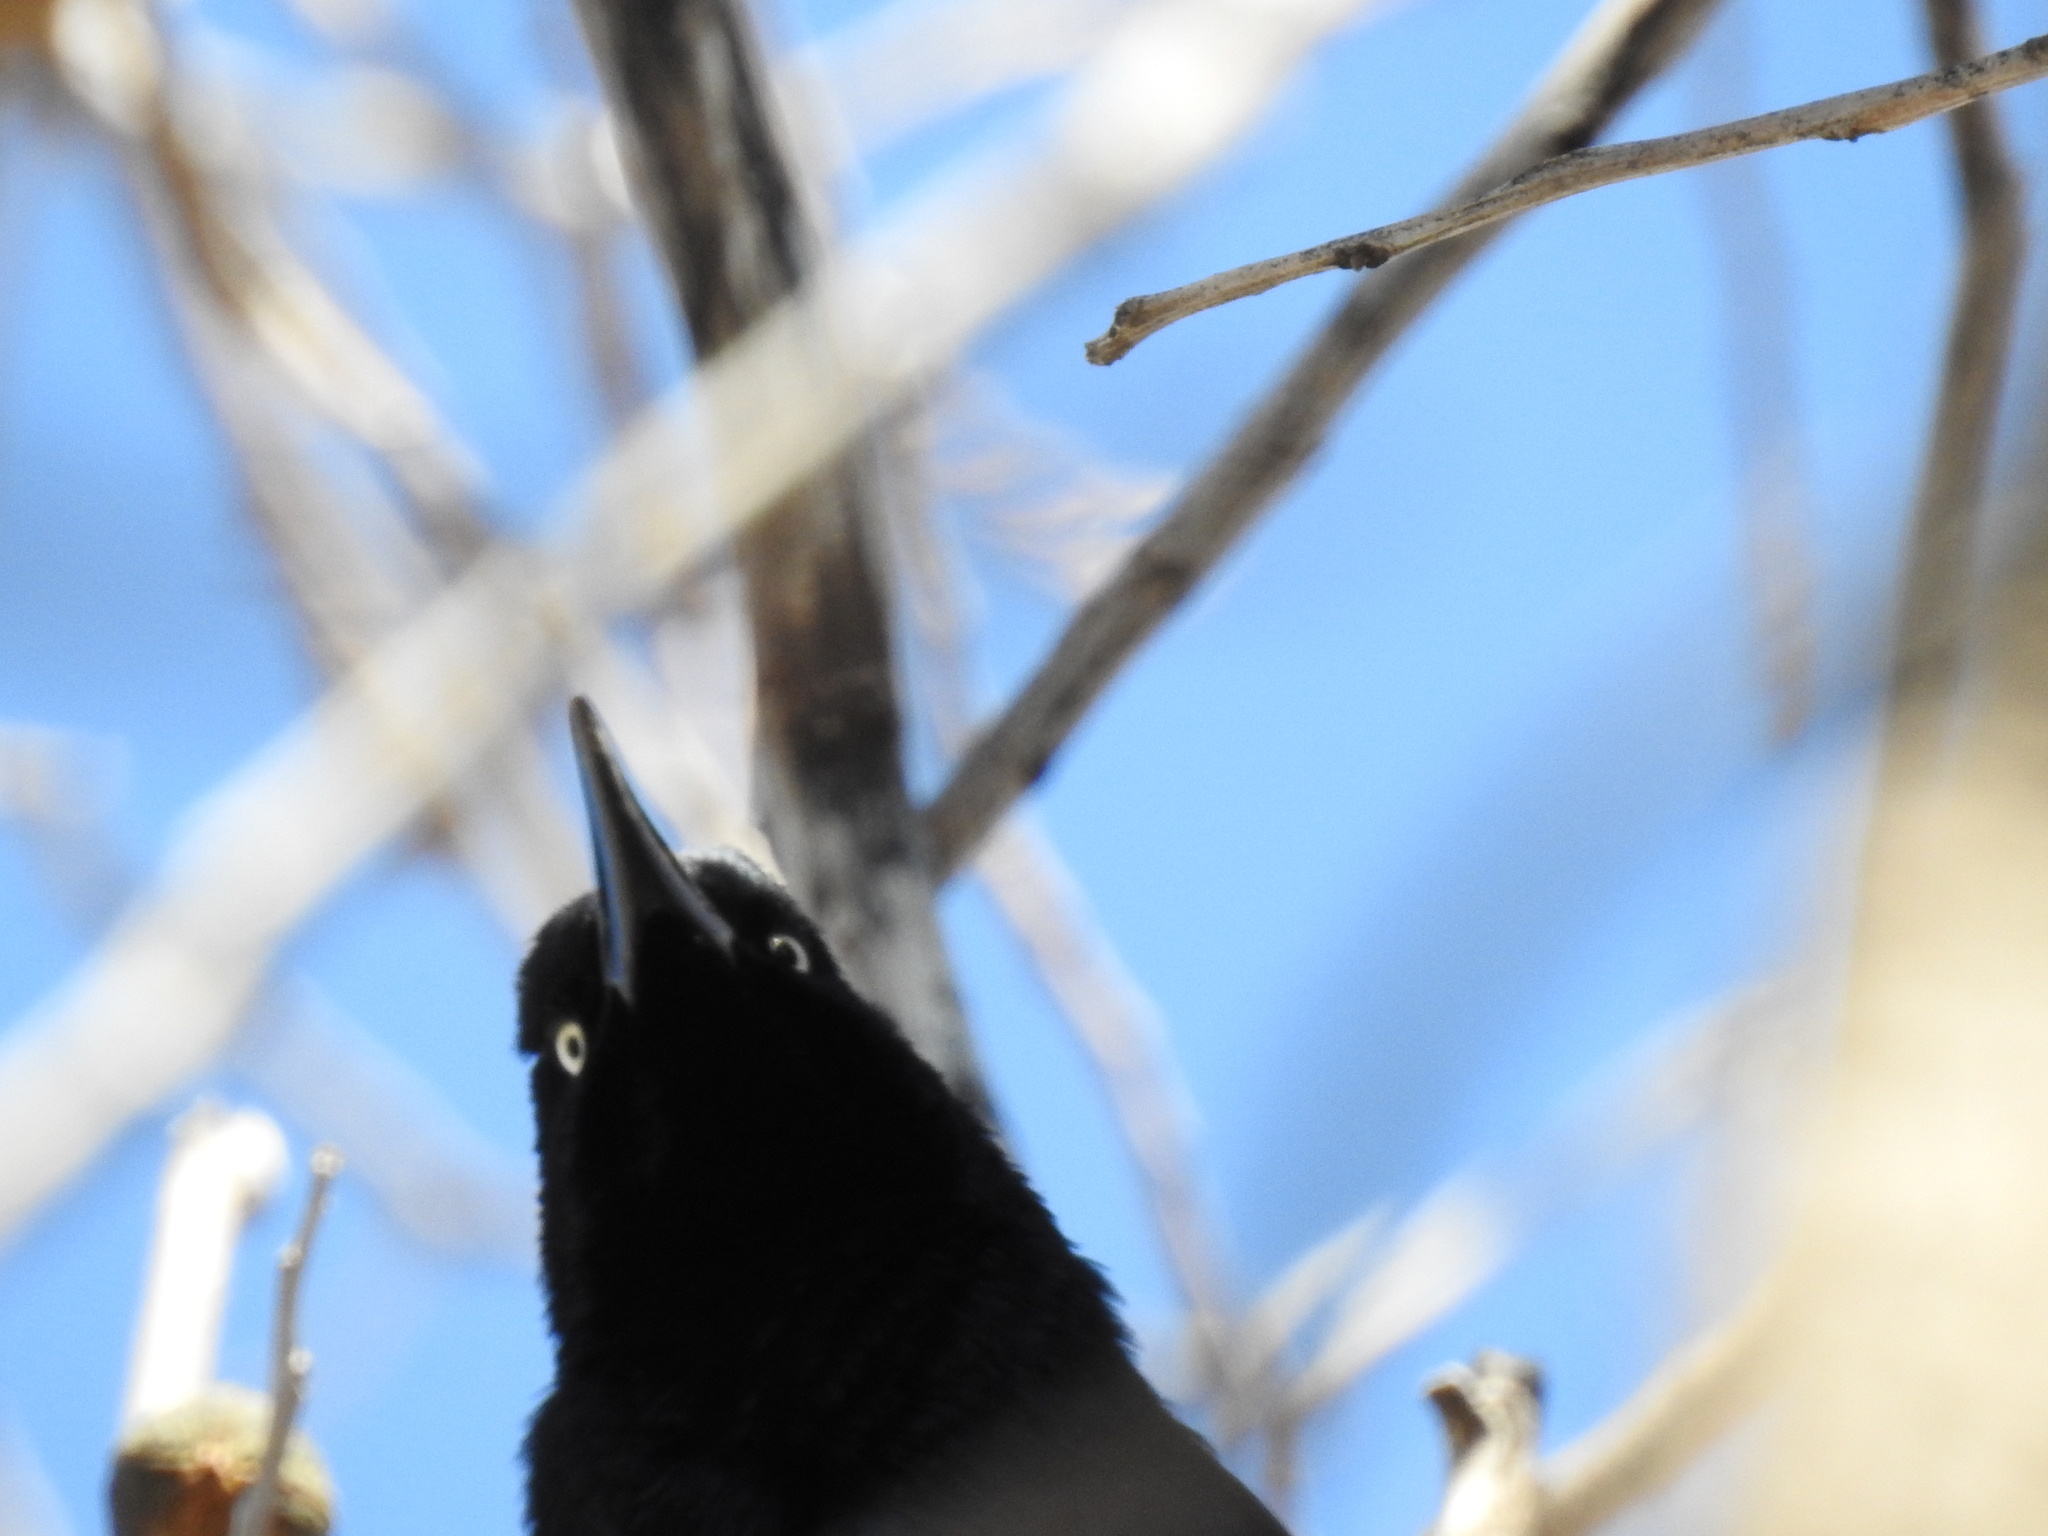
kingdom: Animalia
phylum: Chordata
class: Aves
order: Passeriformes
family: Icteridae
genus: Quiscalus
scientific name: Quiscalus mexicanus
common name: Great-tailed grackle
